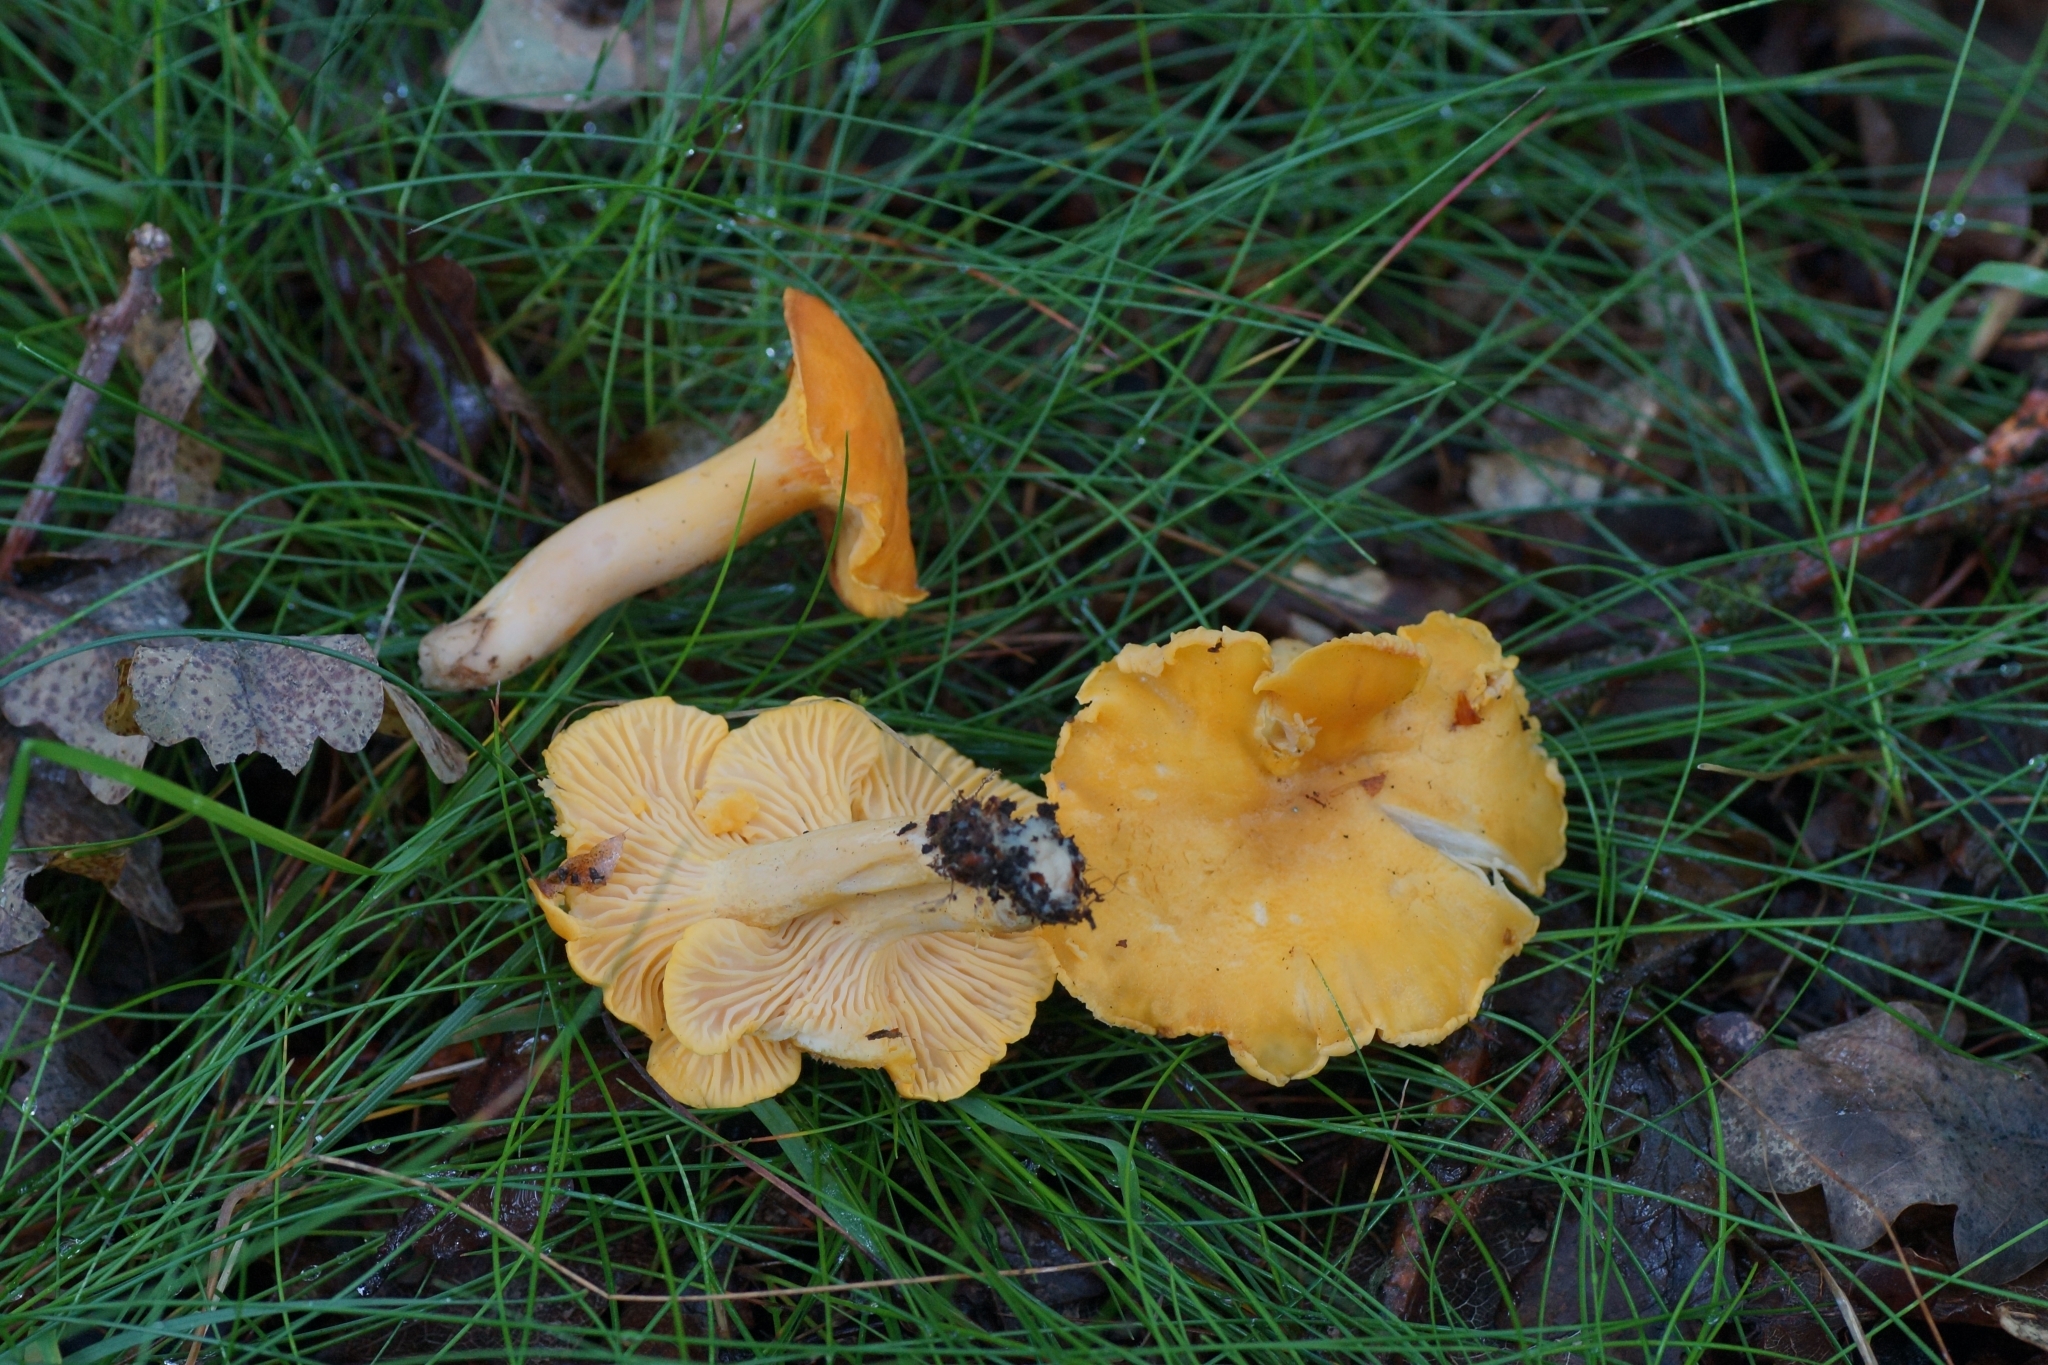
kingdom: Fungi
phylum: Basidiomycota
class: Agaricomycetes
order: Cantharellales
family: Hydnaceae
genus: Cantharellus
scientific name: Cantharellus cibarius
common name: Chanterelle
